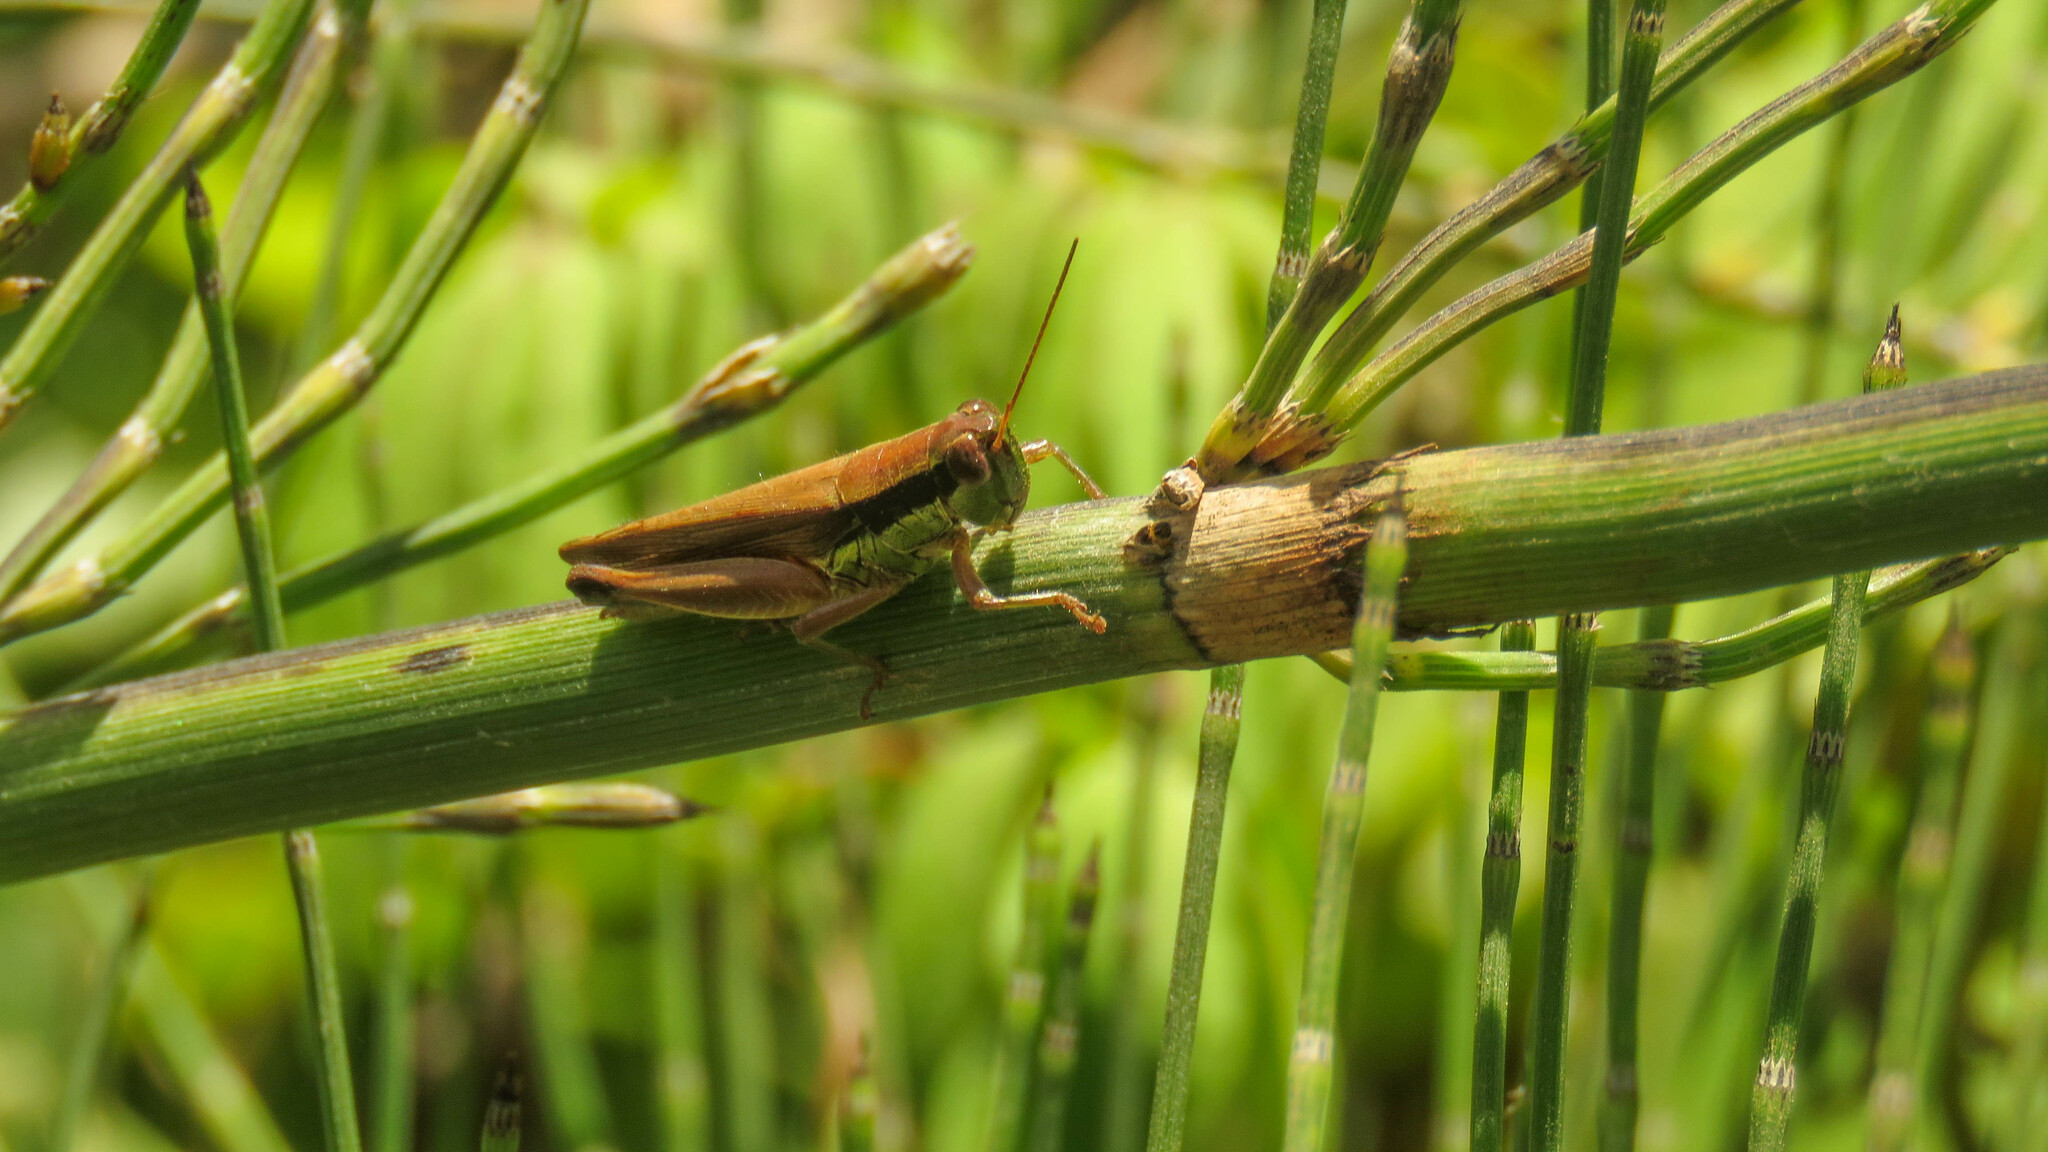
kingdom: Animalia
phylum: Arthropoda
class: Insecta
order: Orthoptera
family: Acrididae
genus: Scotussa
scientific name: Scotussa impudica
